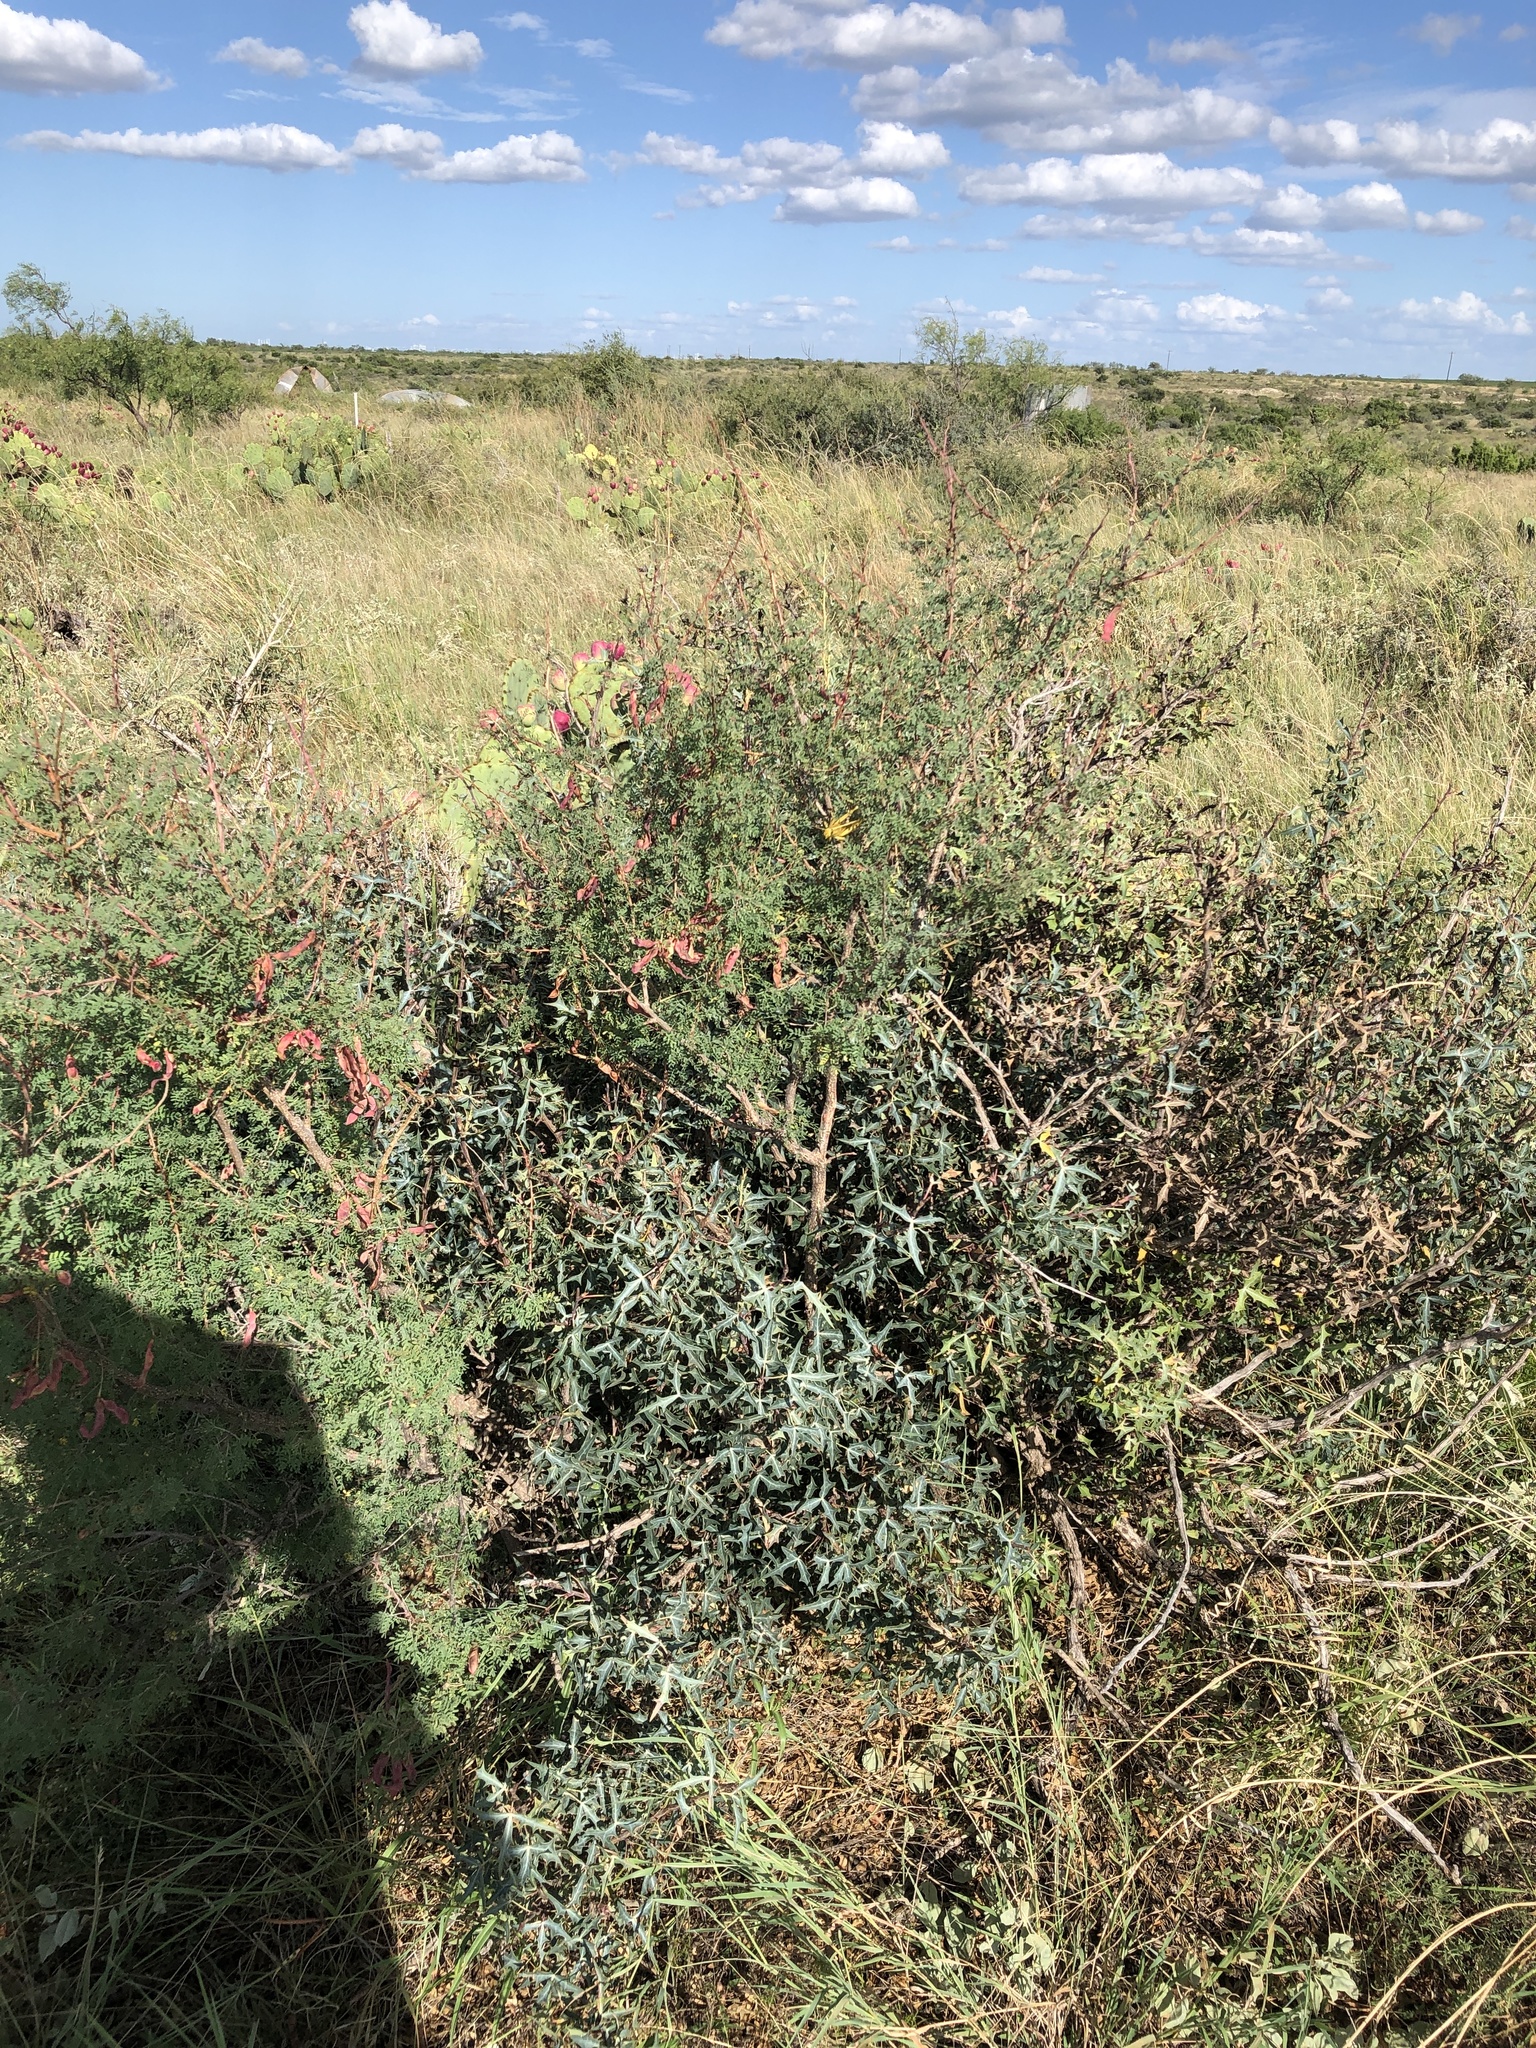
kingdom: Plantae
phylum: Tracheophyta
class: Magnoliopsida
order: Fabales
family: Fabaceae
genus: Mimosa
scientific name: Mimosa aculeaticarpa
